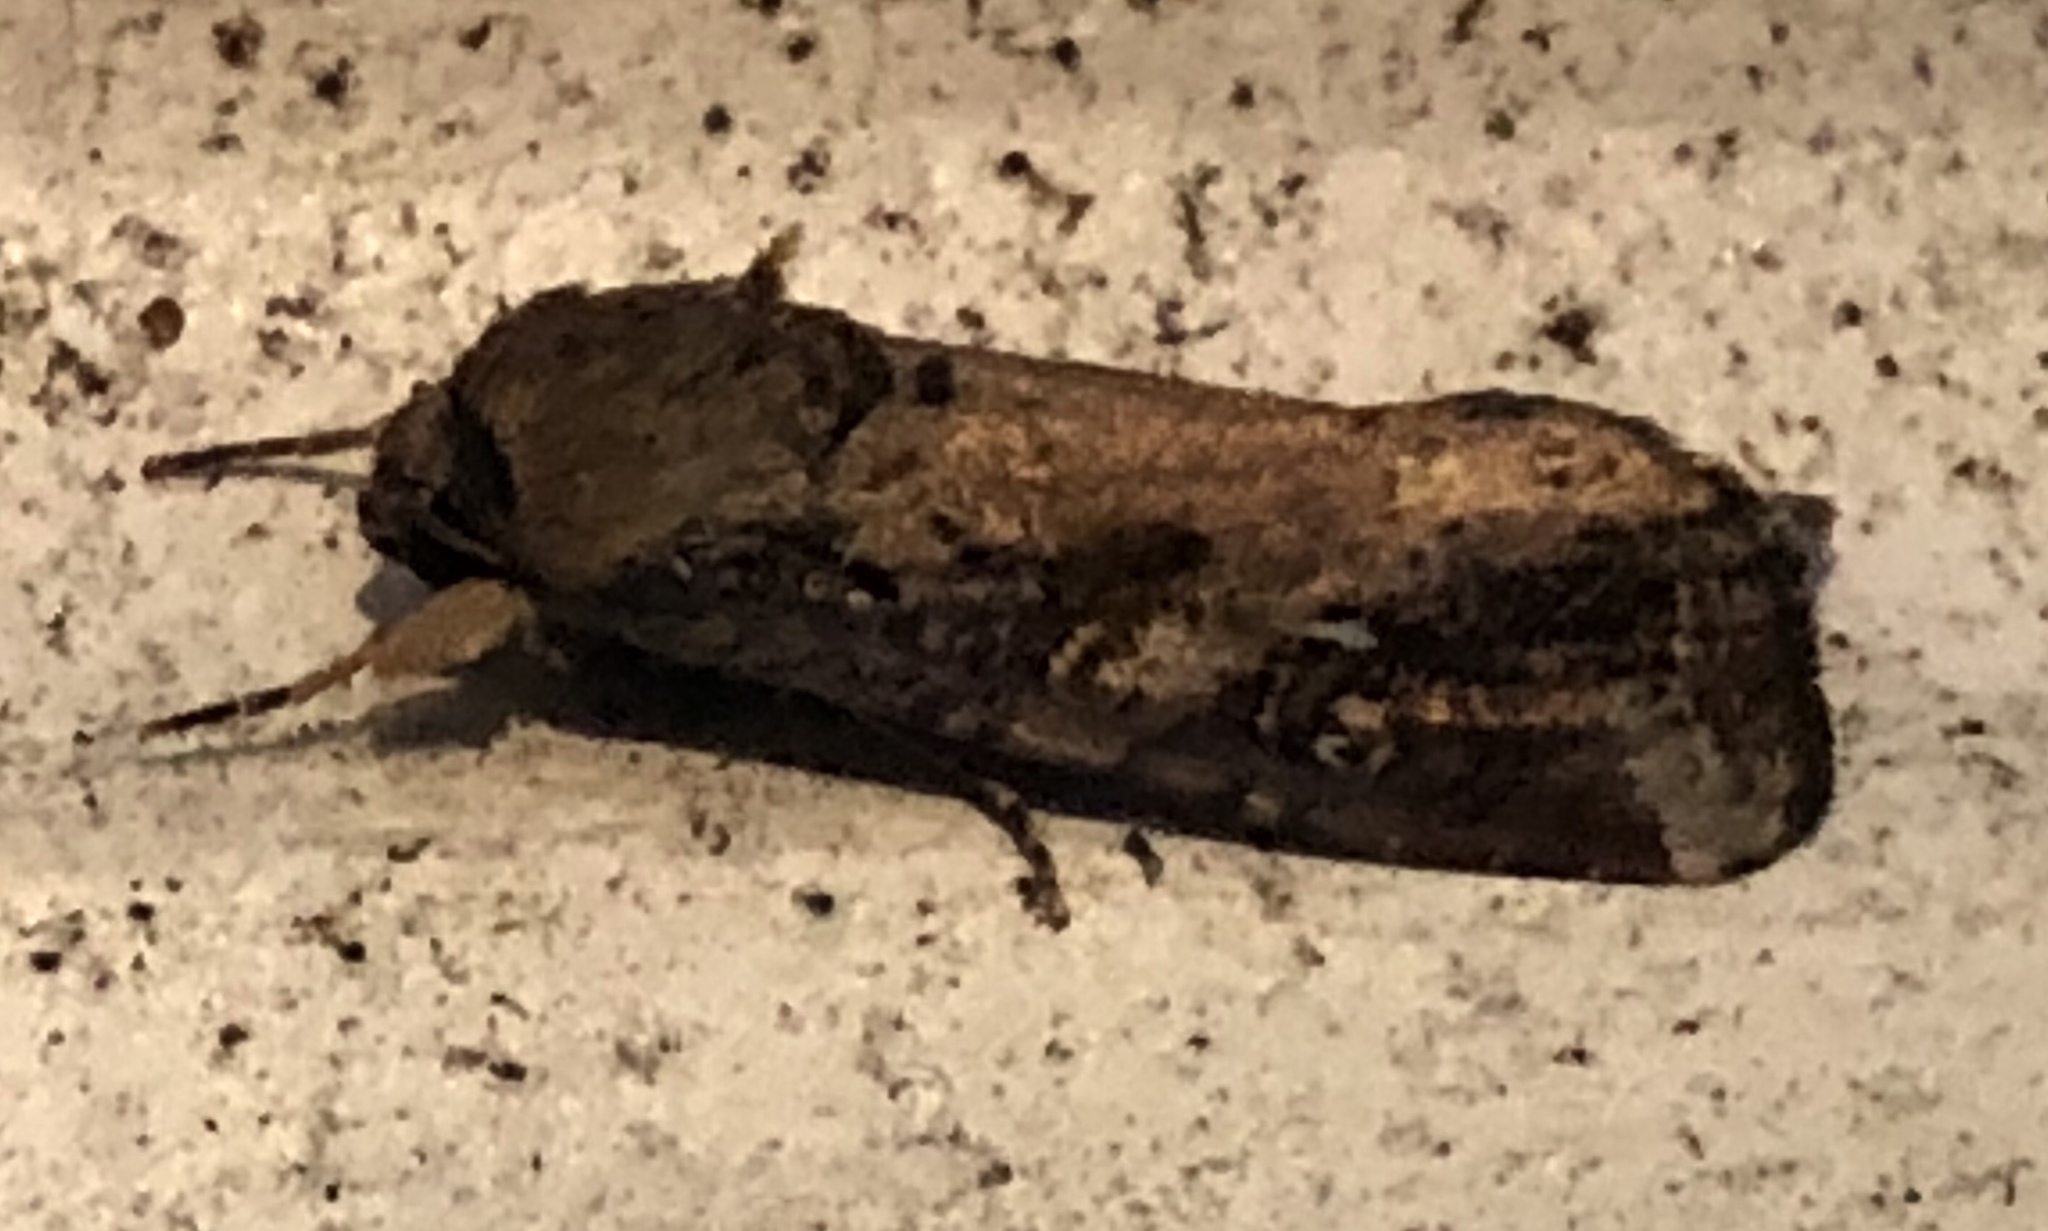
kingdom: Animalia
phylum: Arthropoda
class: Insecta
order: Lepidoptera
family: Noctuidae
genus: Spodoptera
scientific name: Spodoptera frugiperda
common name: Fall armyworm
